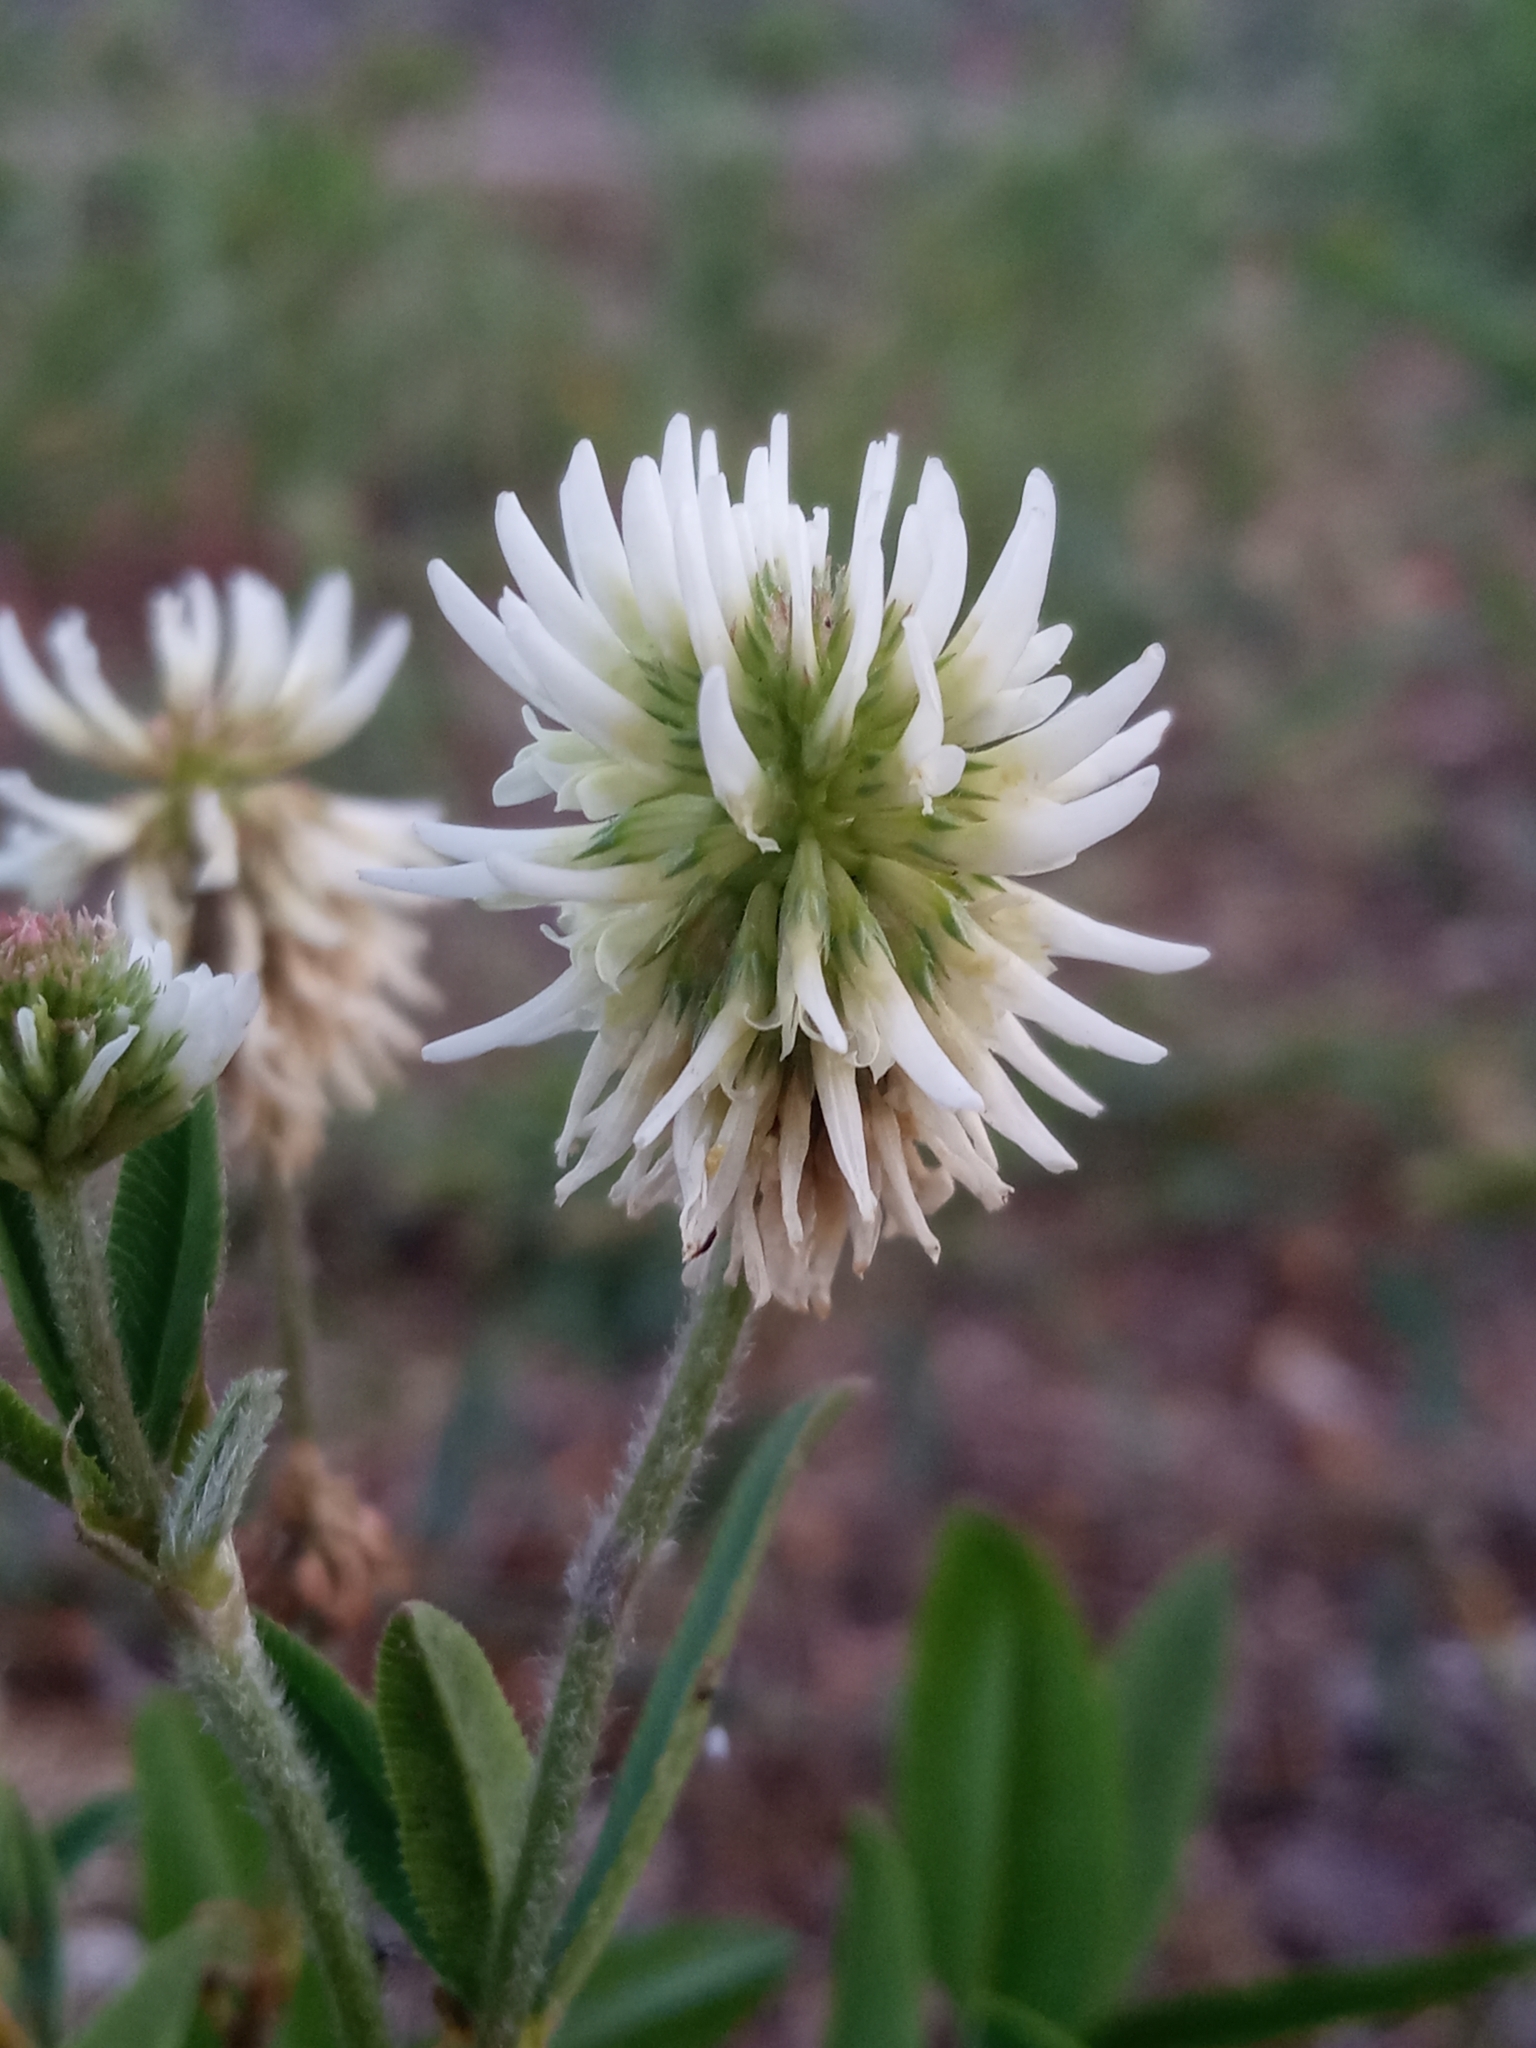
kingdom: Plantae
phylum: Tracheophyta
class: Magnoliopsida
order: Fabales
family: Fabaceae
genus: Trifolium
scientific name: Trifolium montanum
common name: Mountain clover
